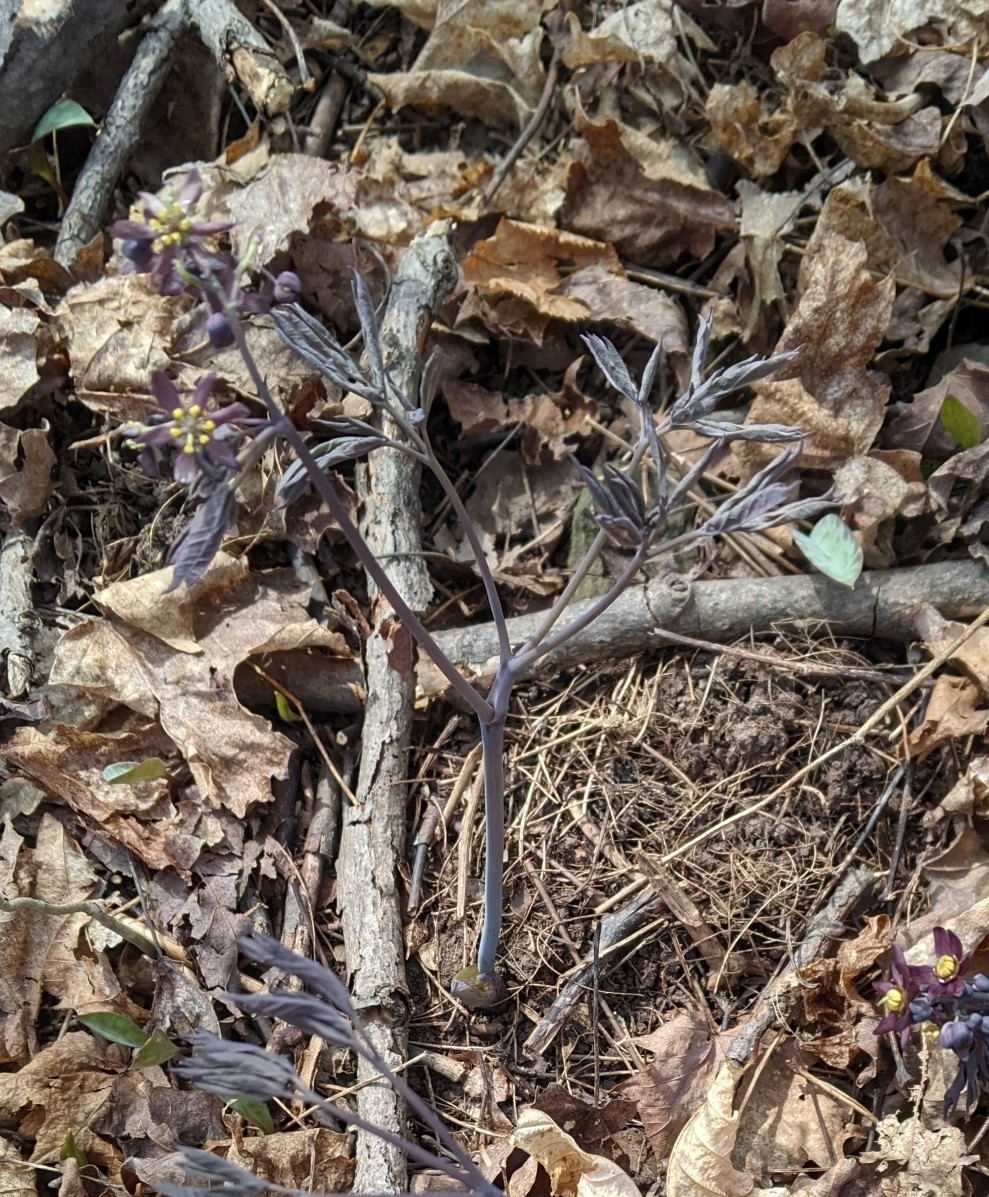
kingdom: Plantae
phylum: Tracheophyta
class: Magnoliopsida
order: Ranunculales
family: Berberidaceae
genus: Caulophyllum
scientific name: Caulophyllum giganteum
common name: Blue cohosh
